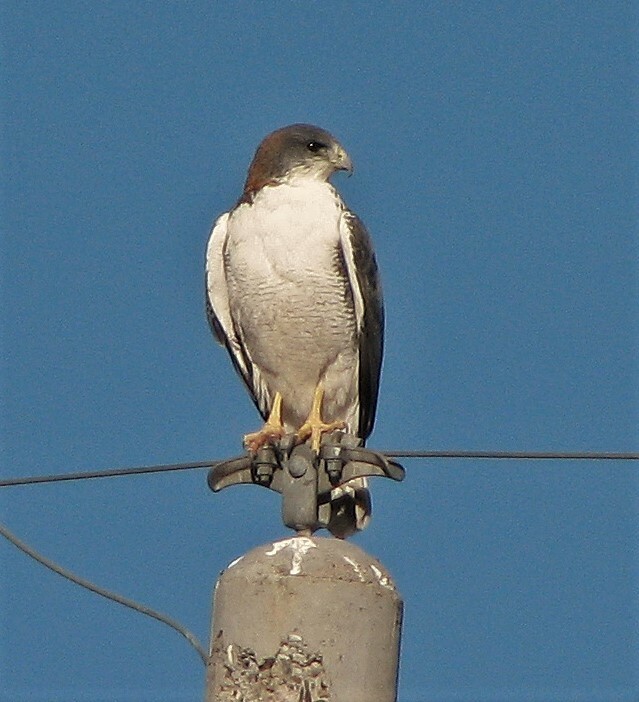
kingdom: Animalia
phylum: Chordata
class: Aves
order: Accipitriformes
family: Accipitridae
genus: Buteo
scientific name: Buteo polyosoma
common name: Variable hawk
